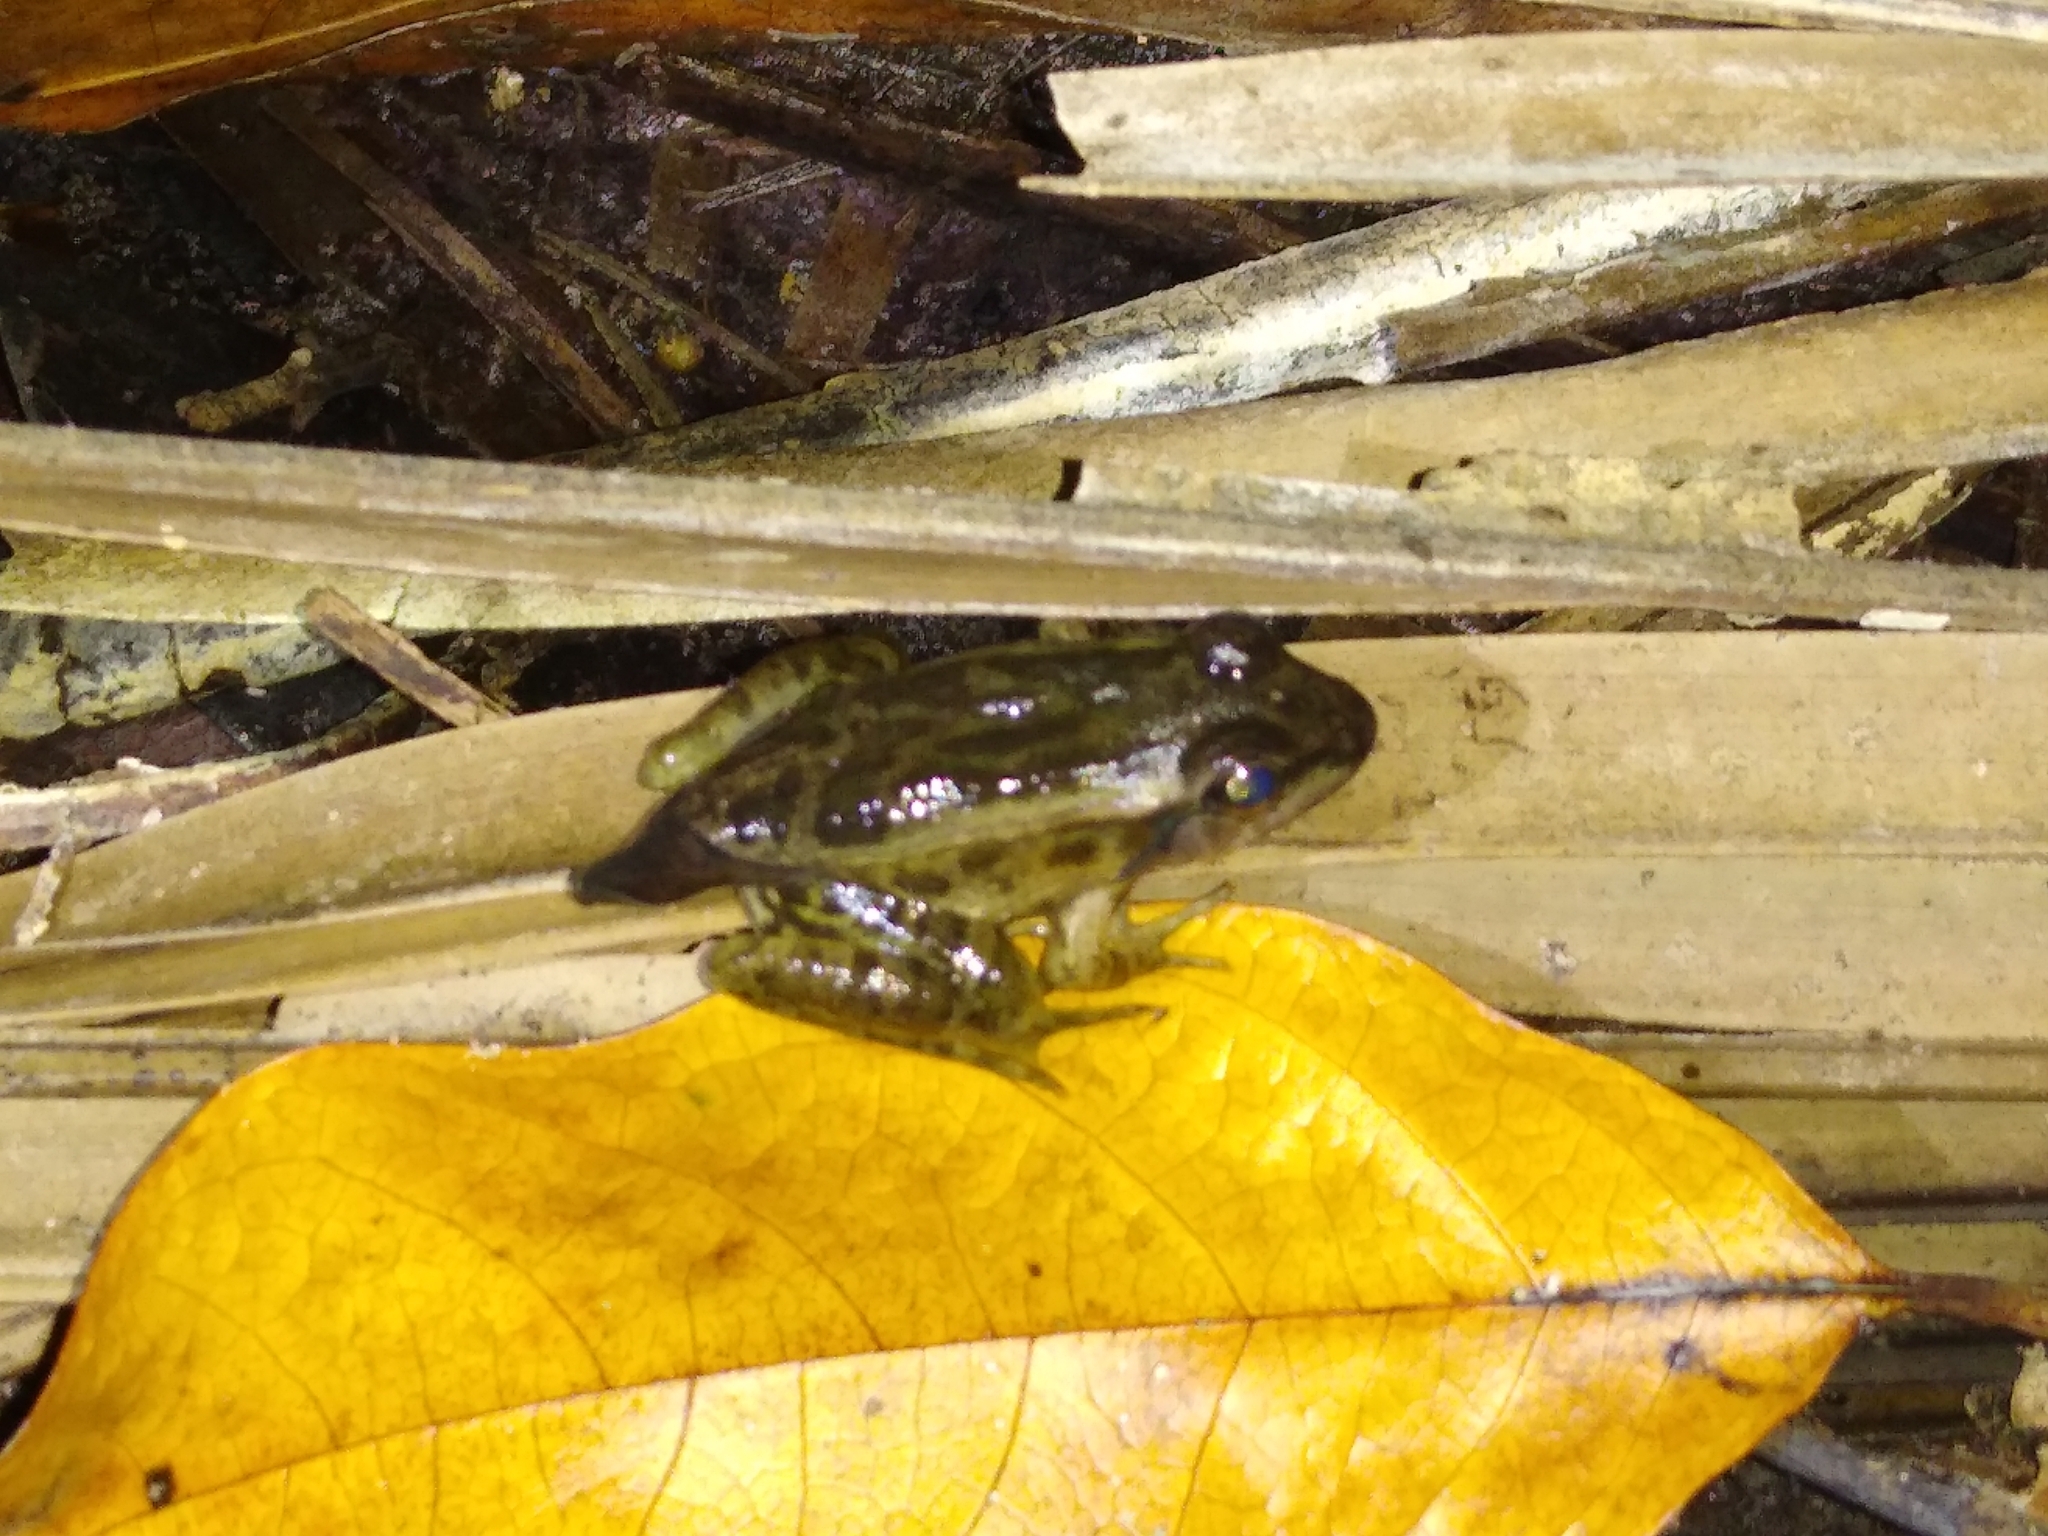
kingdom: Animalia
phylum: Chordata
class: Amphibia
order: Anura
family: Ranidae
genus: Lithobates
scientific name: Lithobates brownorum
